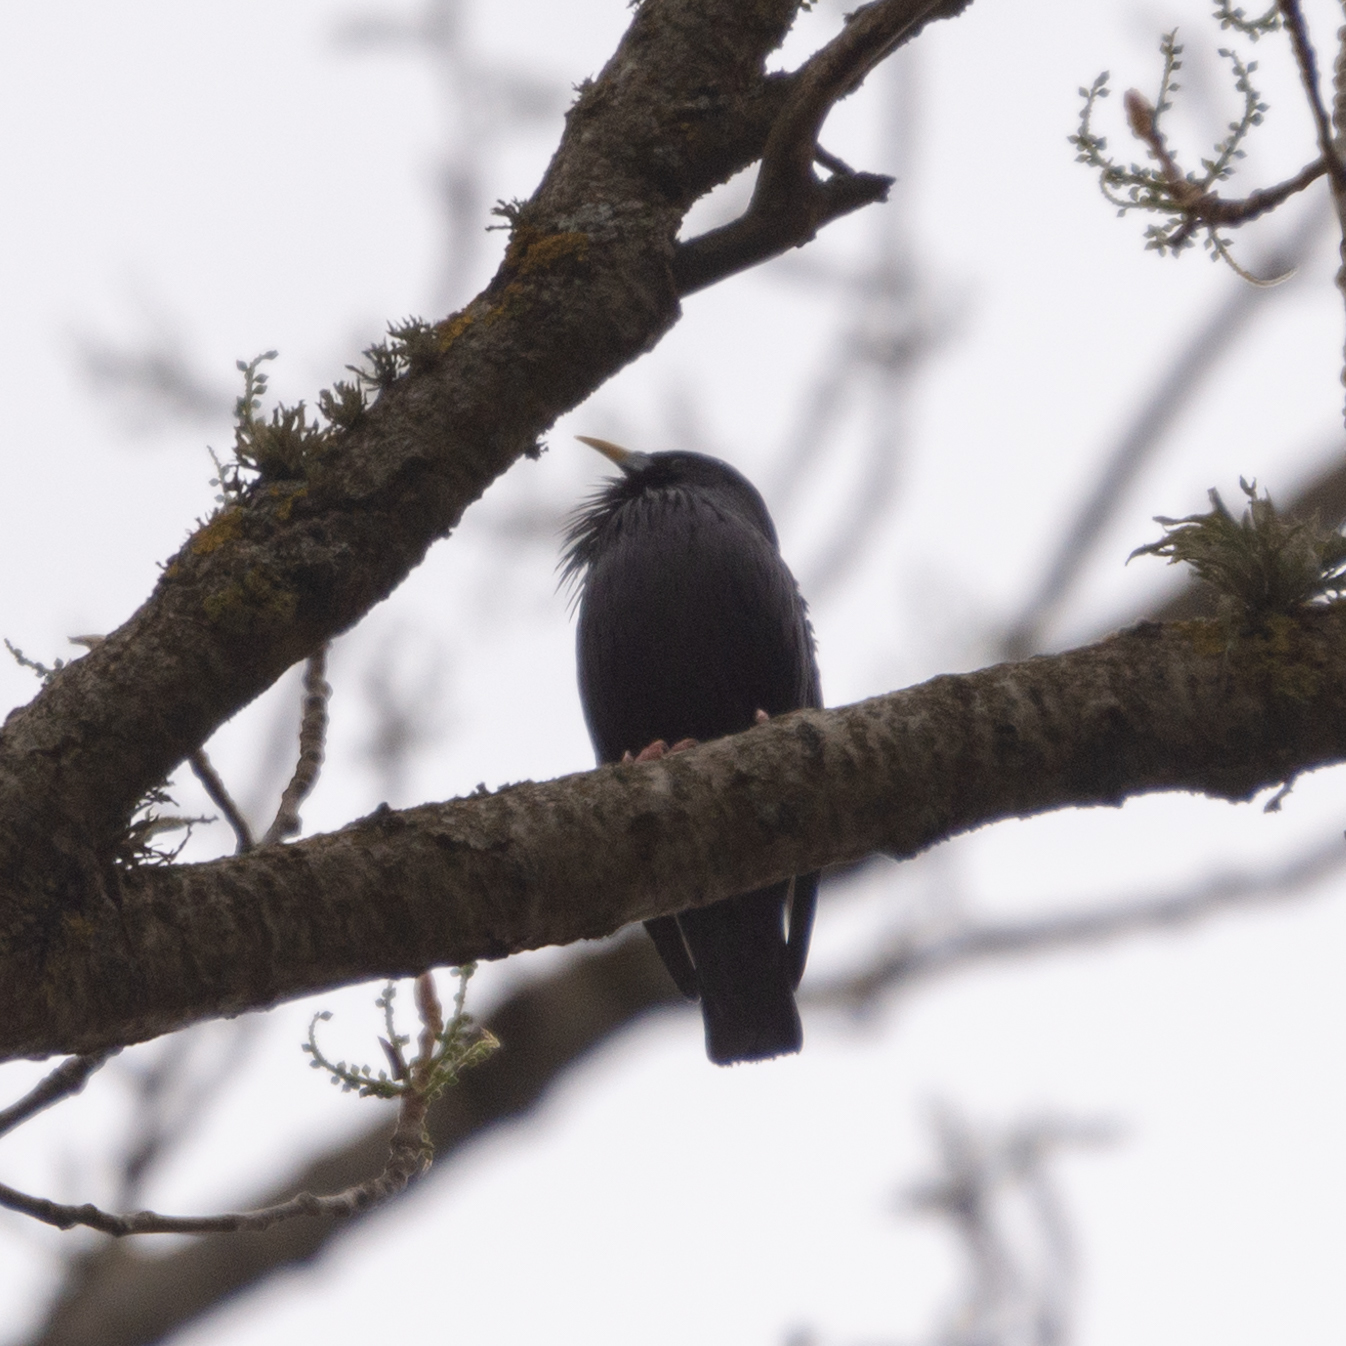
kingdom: Animalia
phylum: Chordata
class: Aves
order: Passeriformes
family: Sturnidae
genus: Sturnus
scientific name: Sturnus unicolor
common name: Spotless starling
